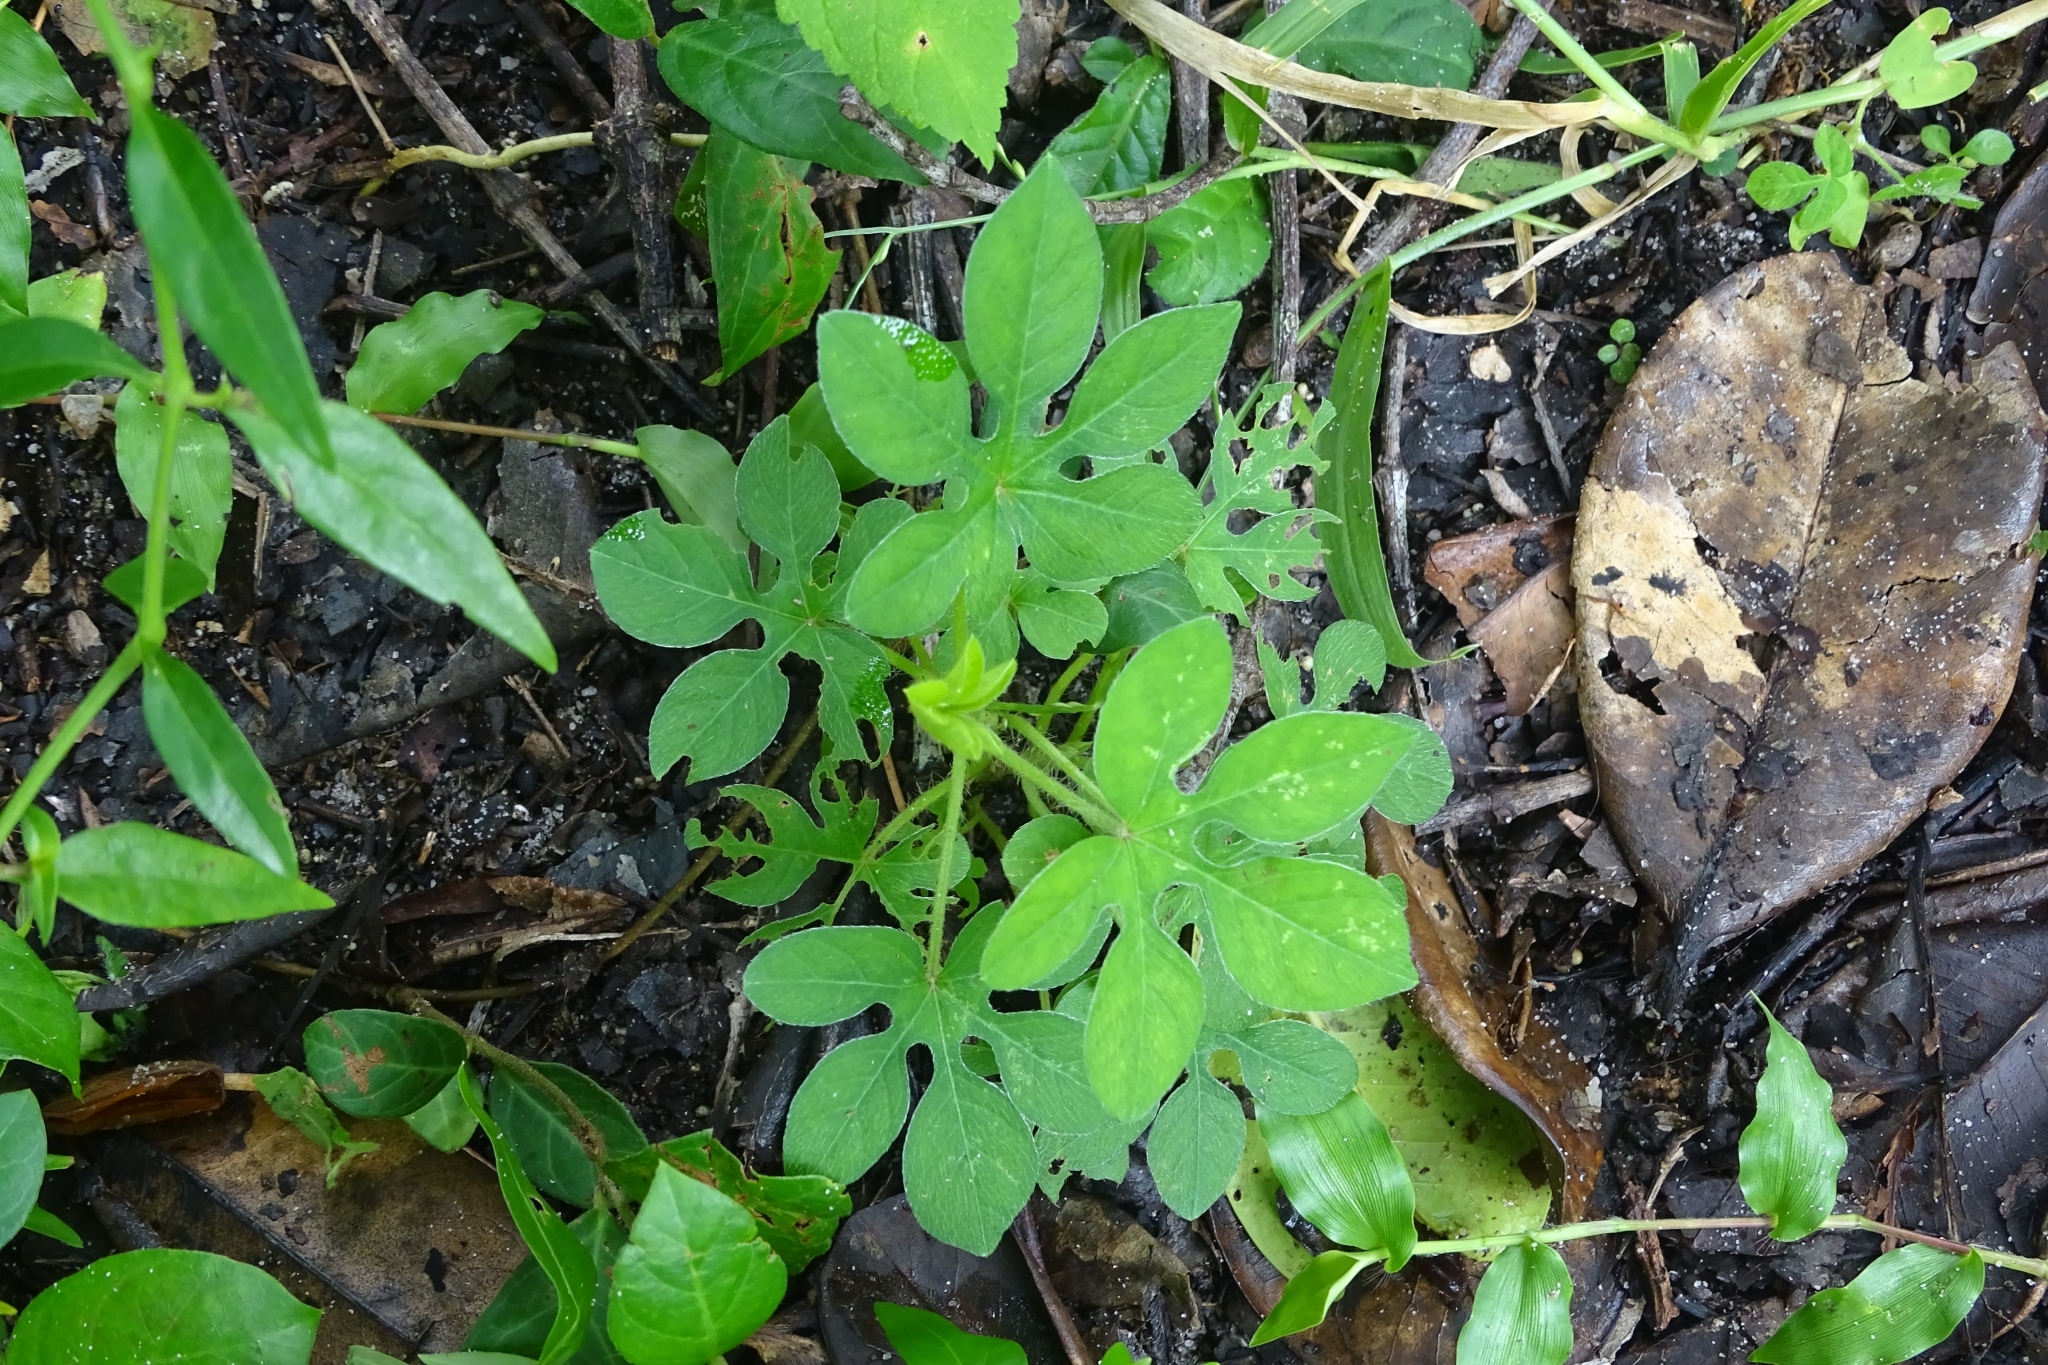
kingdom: Plantae
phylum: Tracheophyta
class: Magnoliopsida
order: Solanales
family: Convolvulaceae
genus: Ipomoea
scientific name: Ipomoea pes-tigridis
